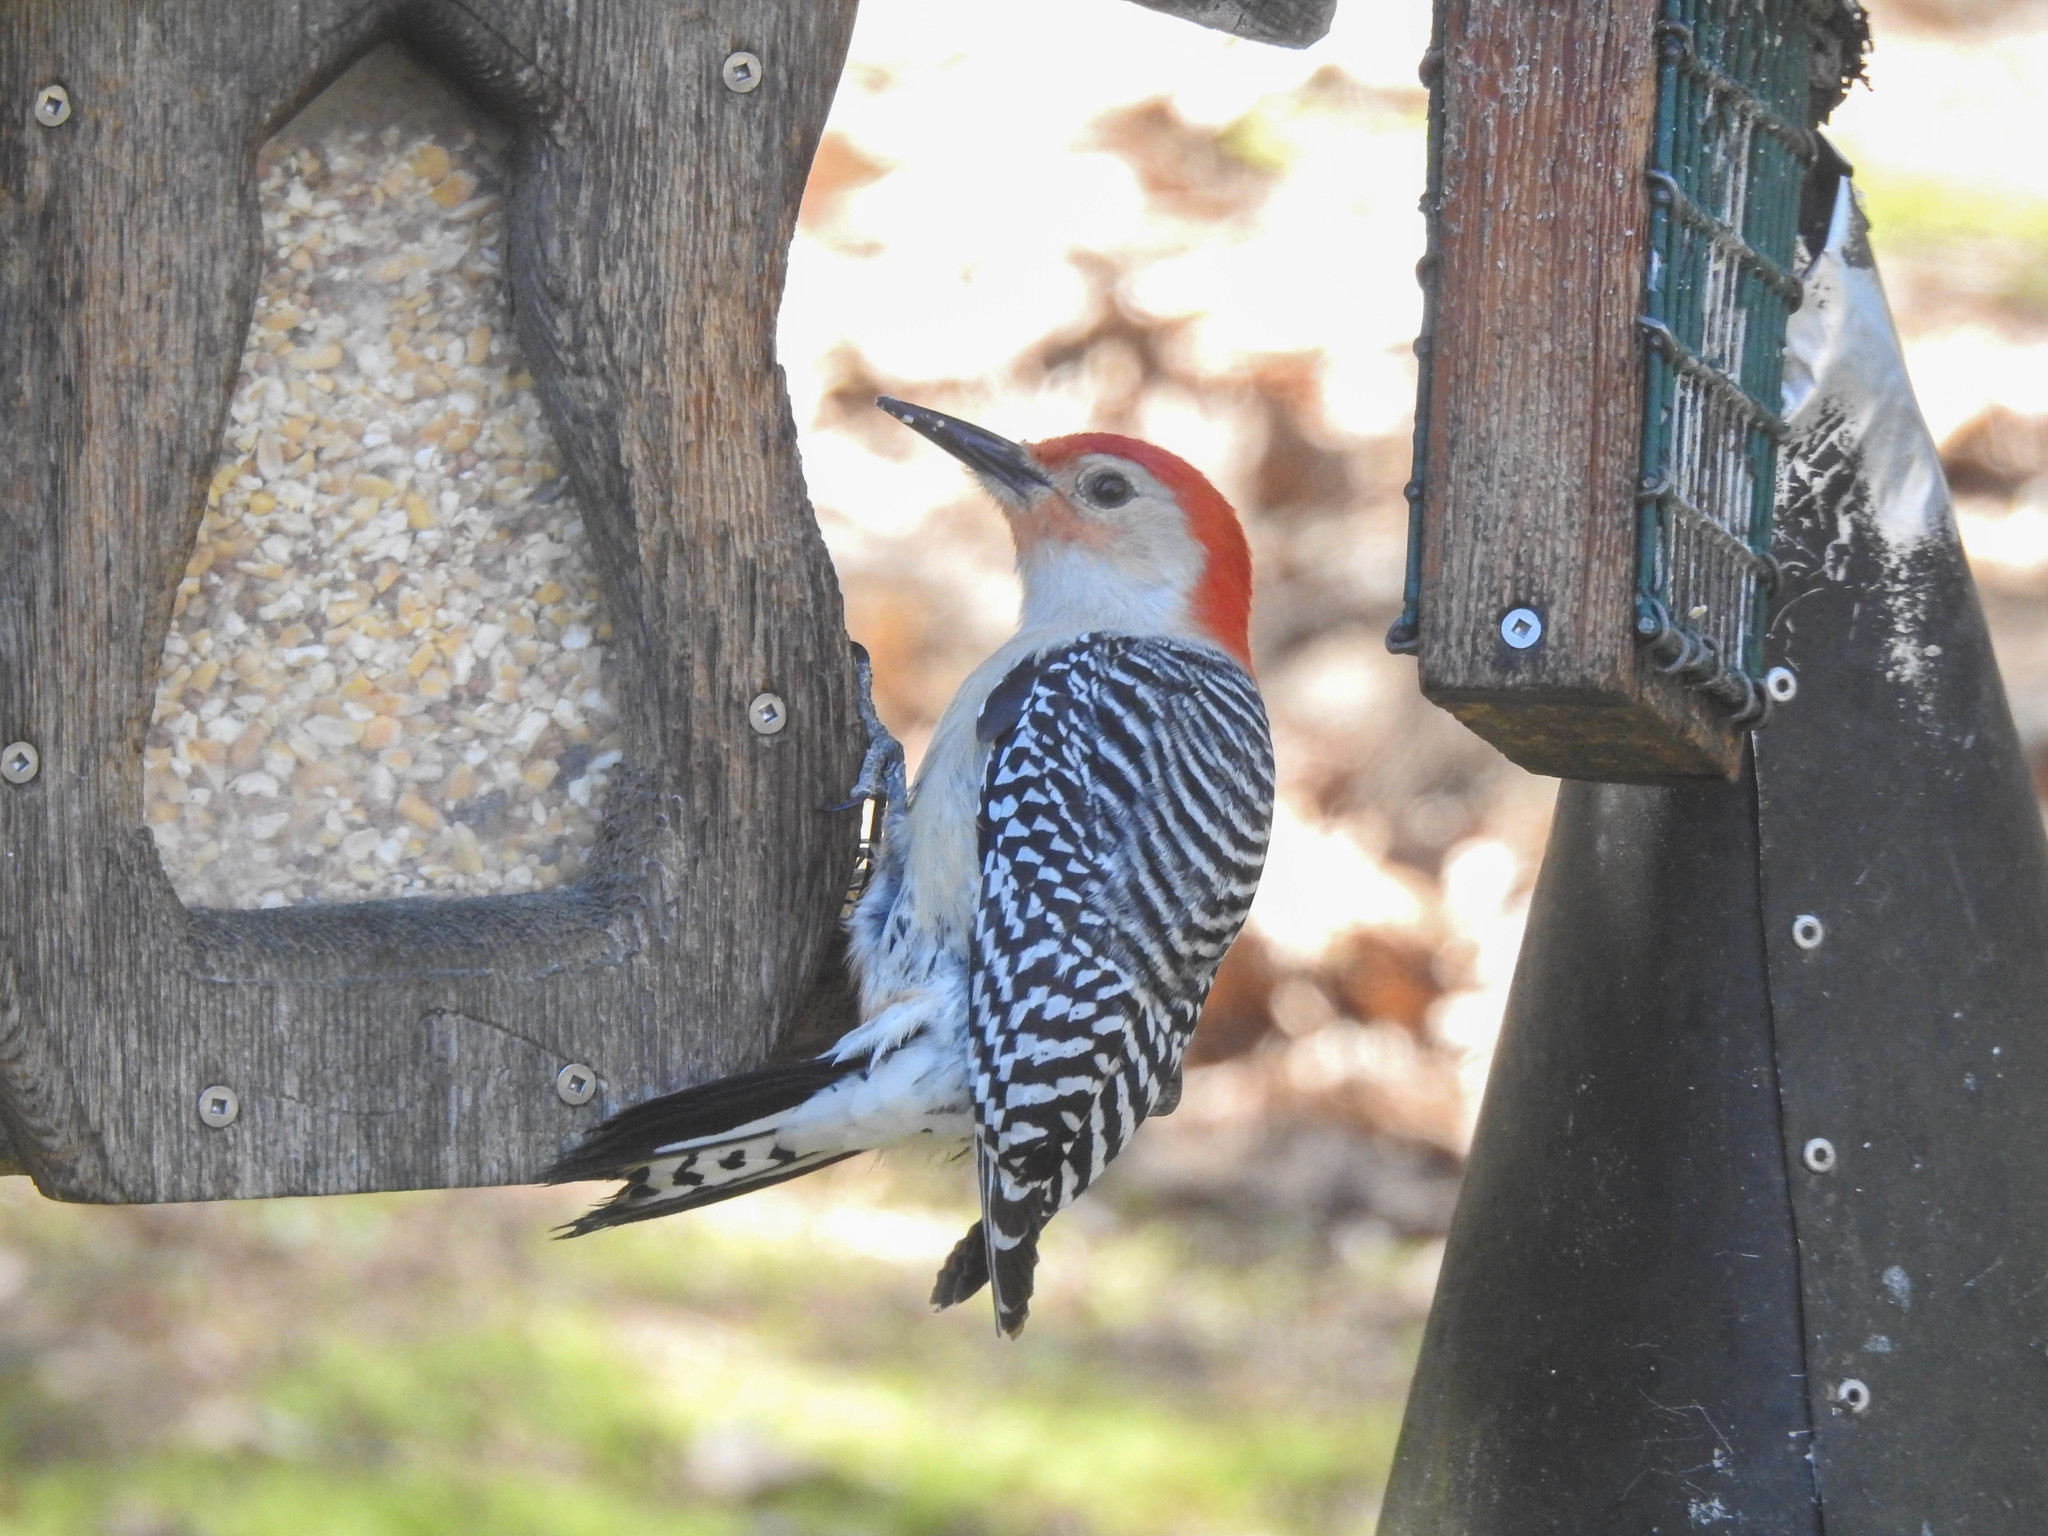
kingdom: Animalia
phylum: Chordata
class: Aves
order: Piciformes
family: Picidae
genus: Melanerpes
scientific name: Melanerpes carolinus
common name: Red-bellied woodpecker
